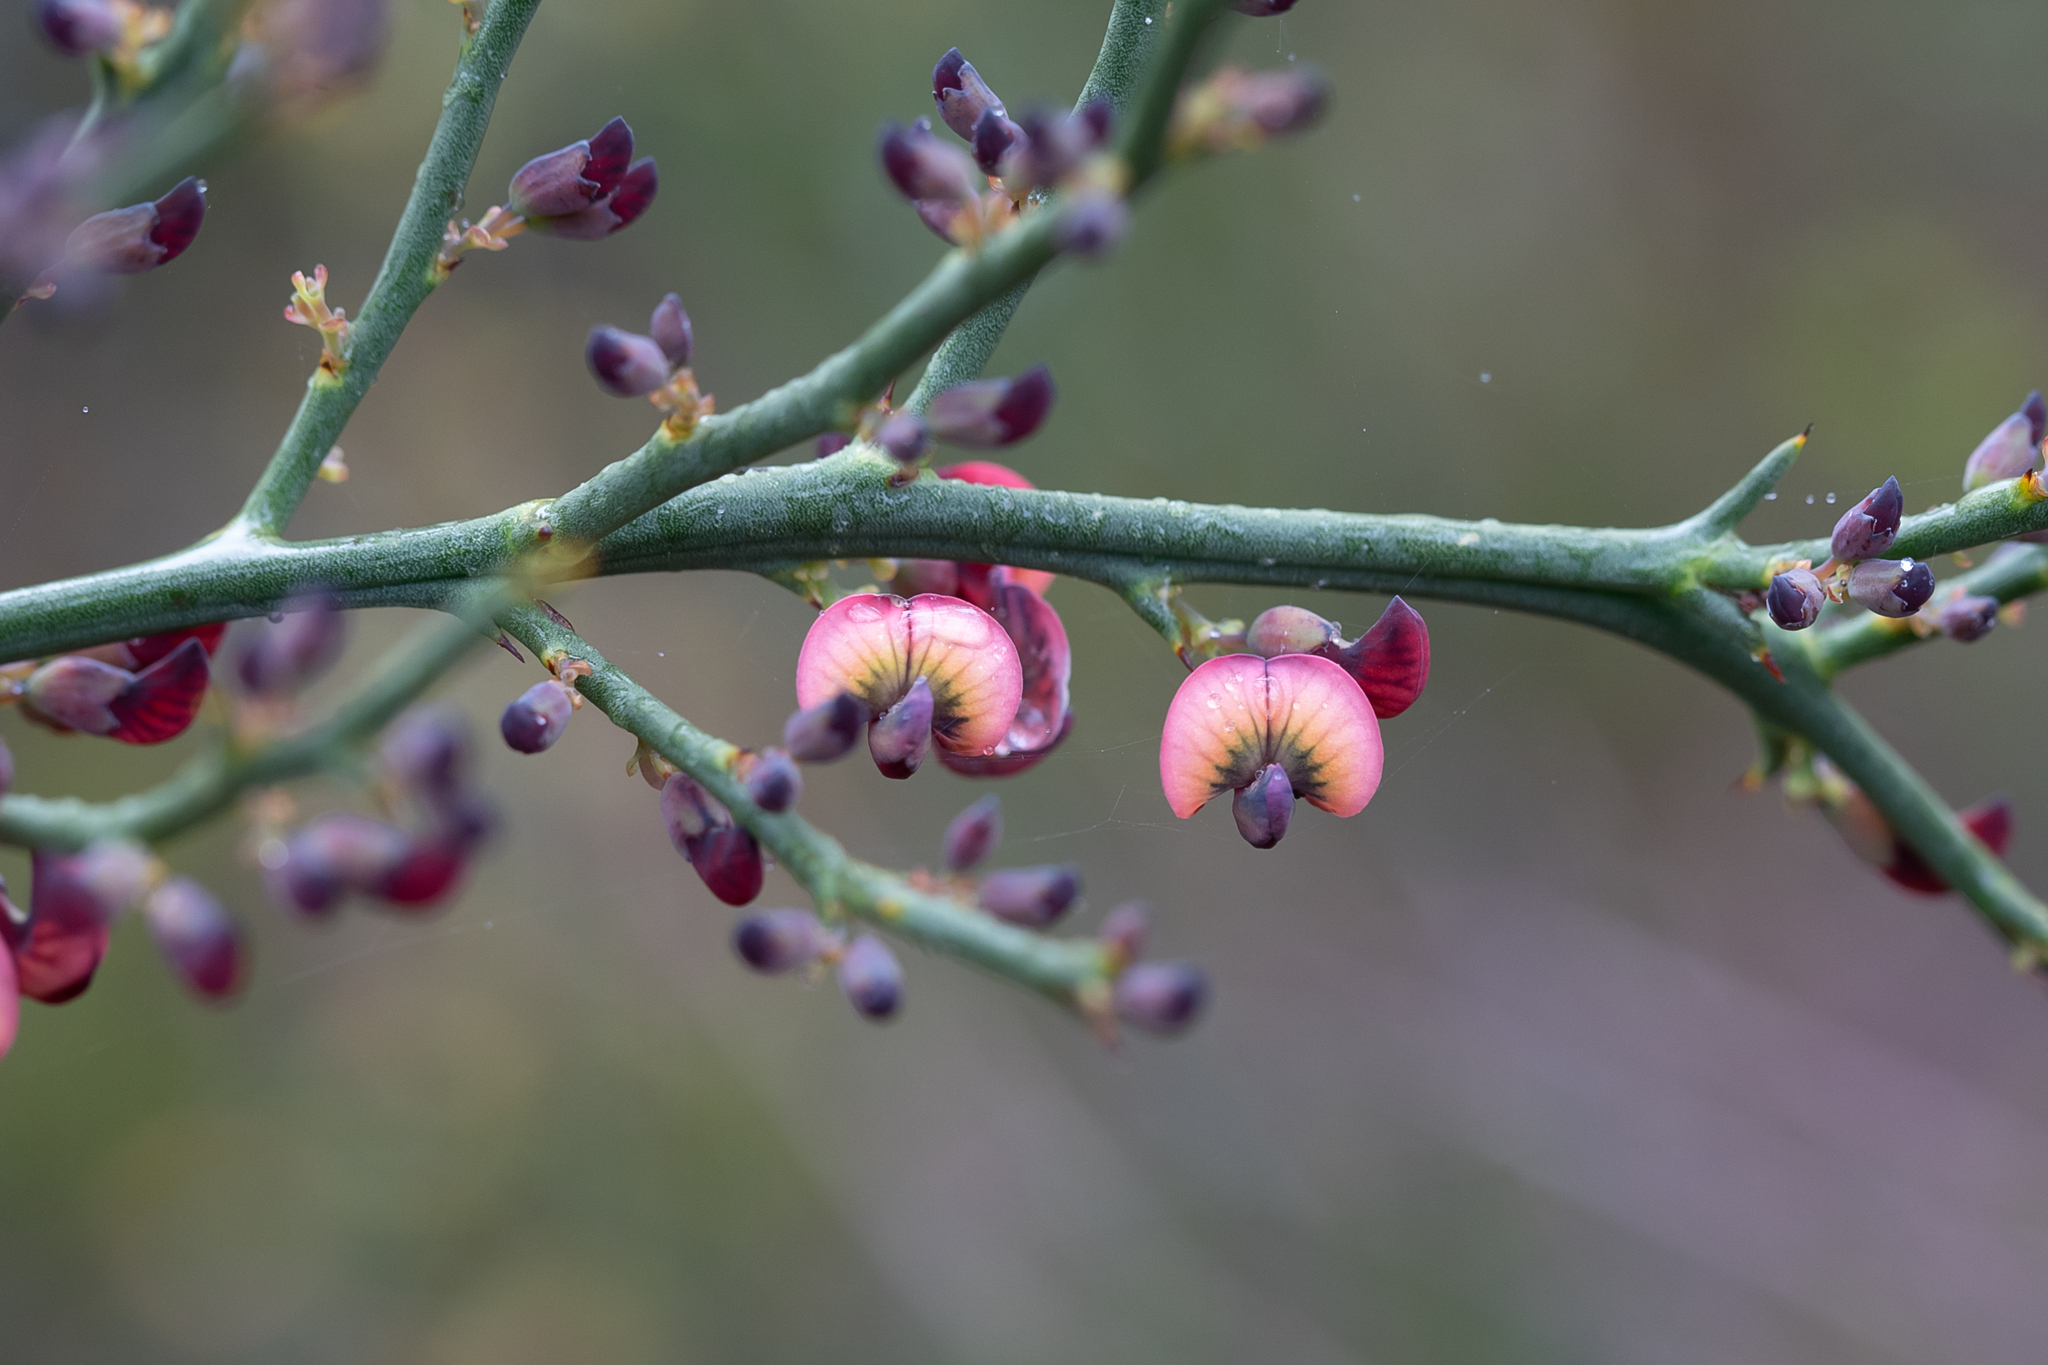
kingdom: Plantae
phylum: Tracheophyta
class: Magnoliopsida
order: Fabales
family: Fabaceae
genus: Daviesia
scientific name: Daviesia brevifolia
